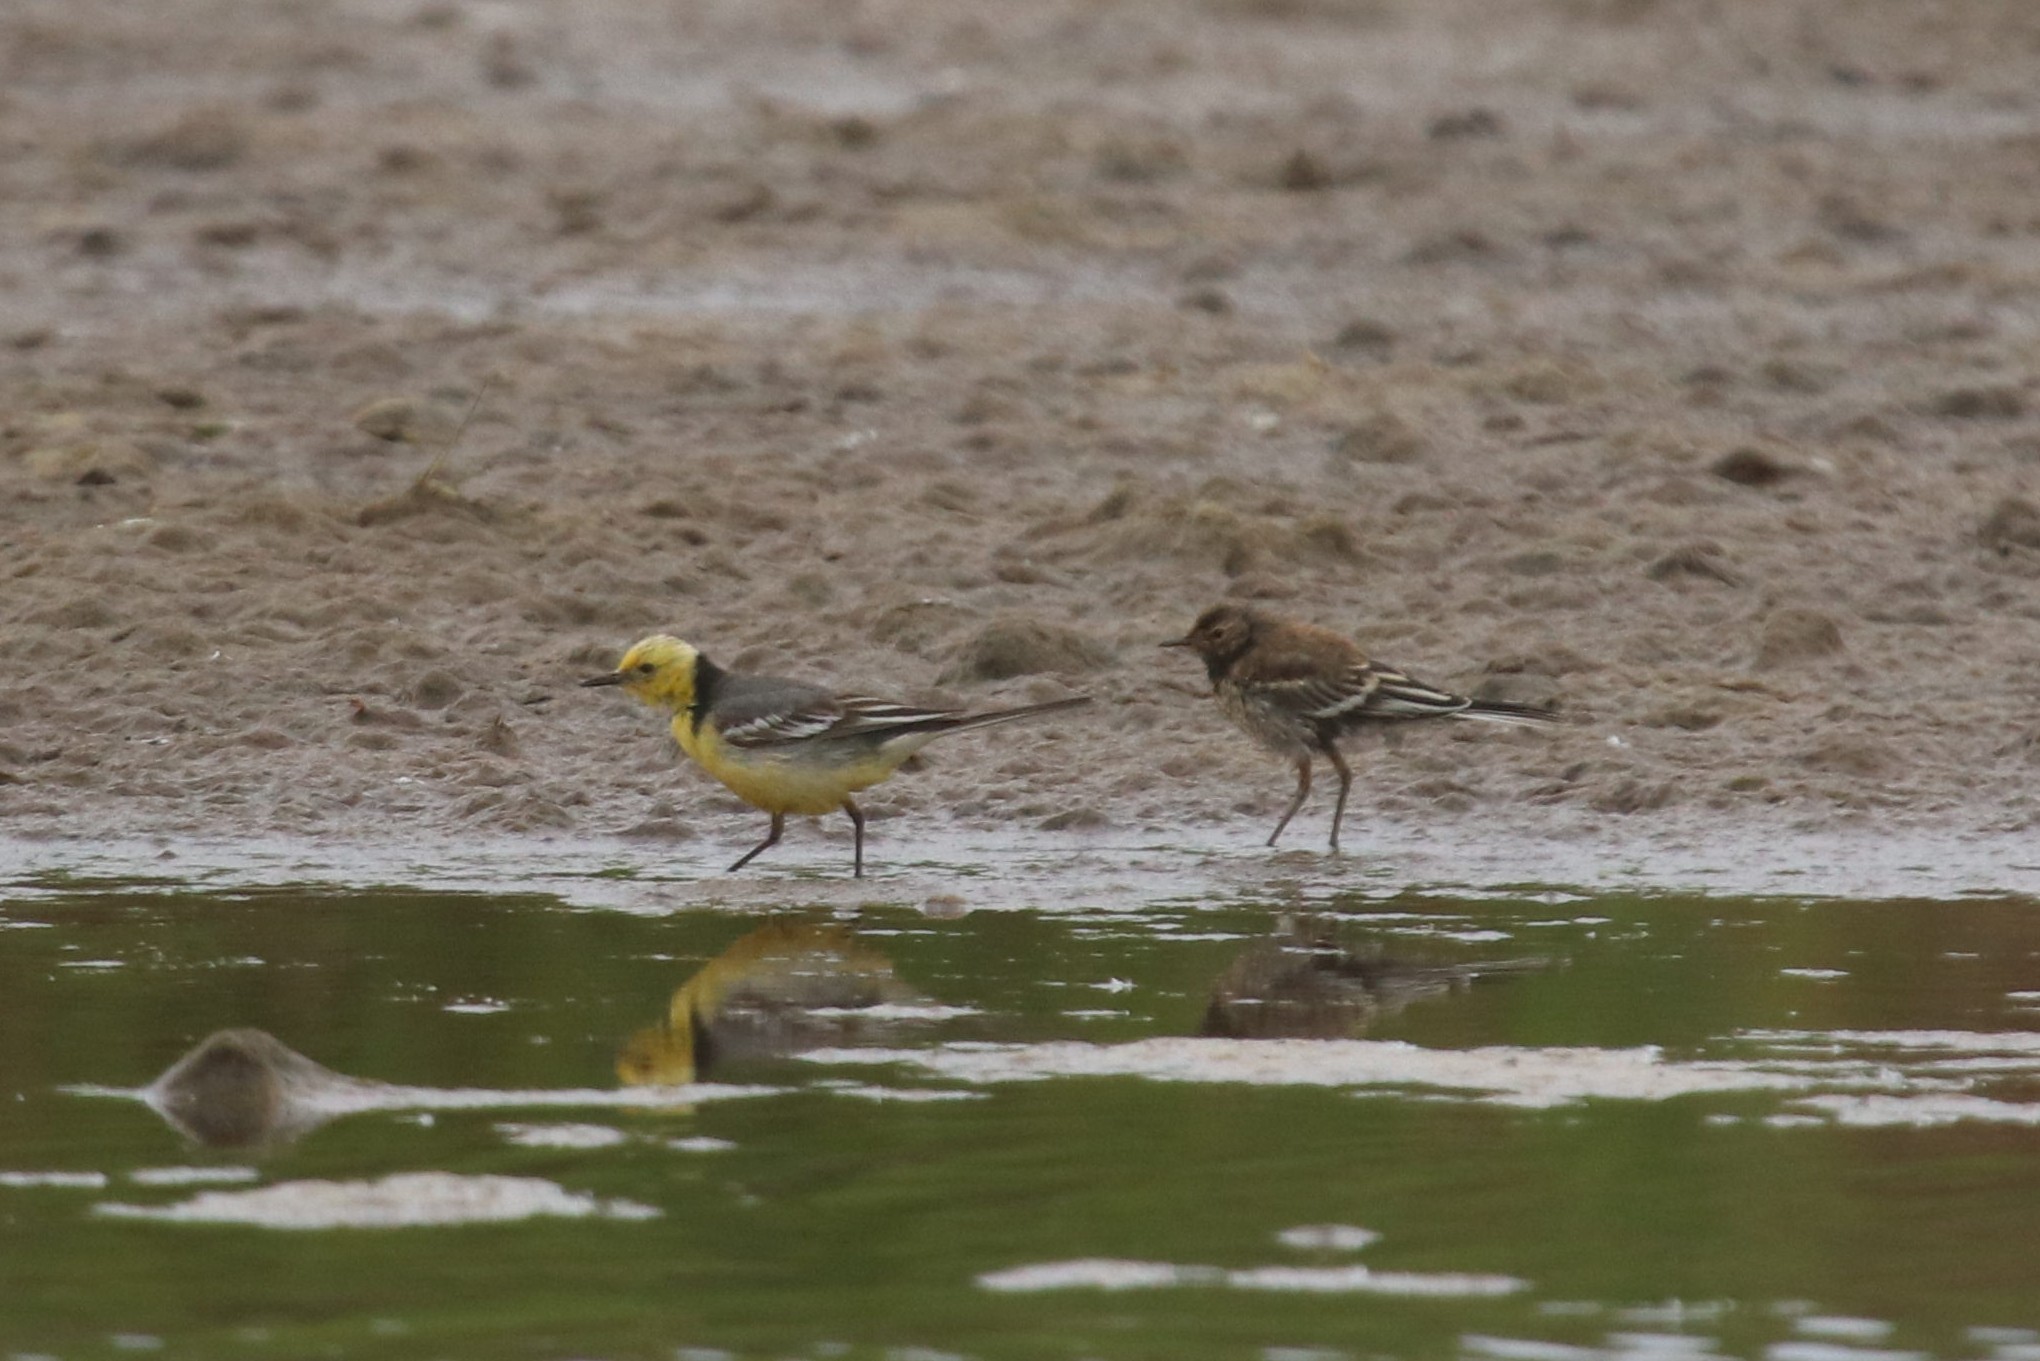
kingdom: Animalia
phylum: Chordata
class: Aves
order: Passeriformes
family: Motacillidae
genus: Motacilla
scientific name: Motacilla citreola
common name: Citrine wagtail
